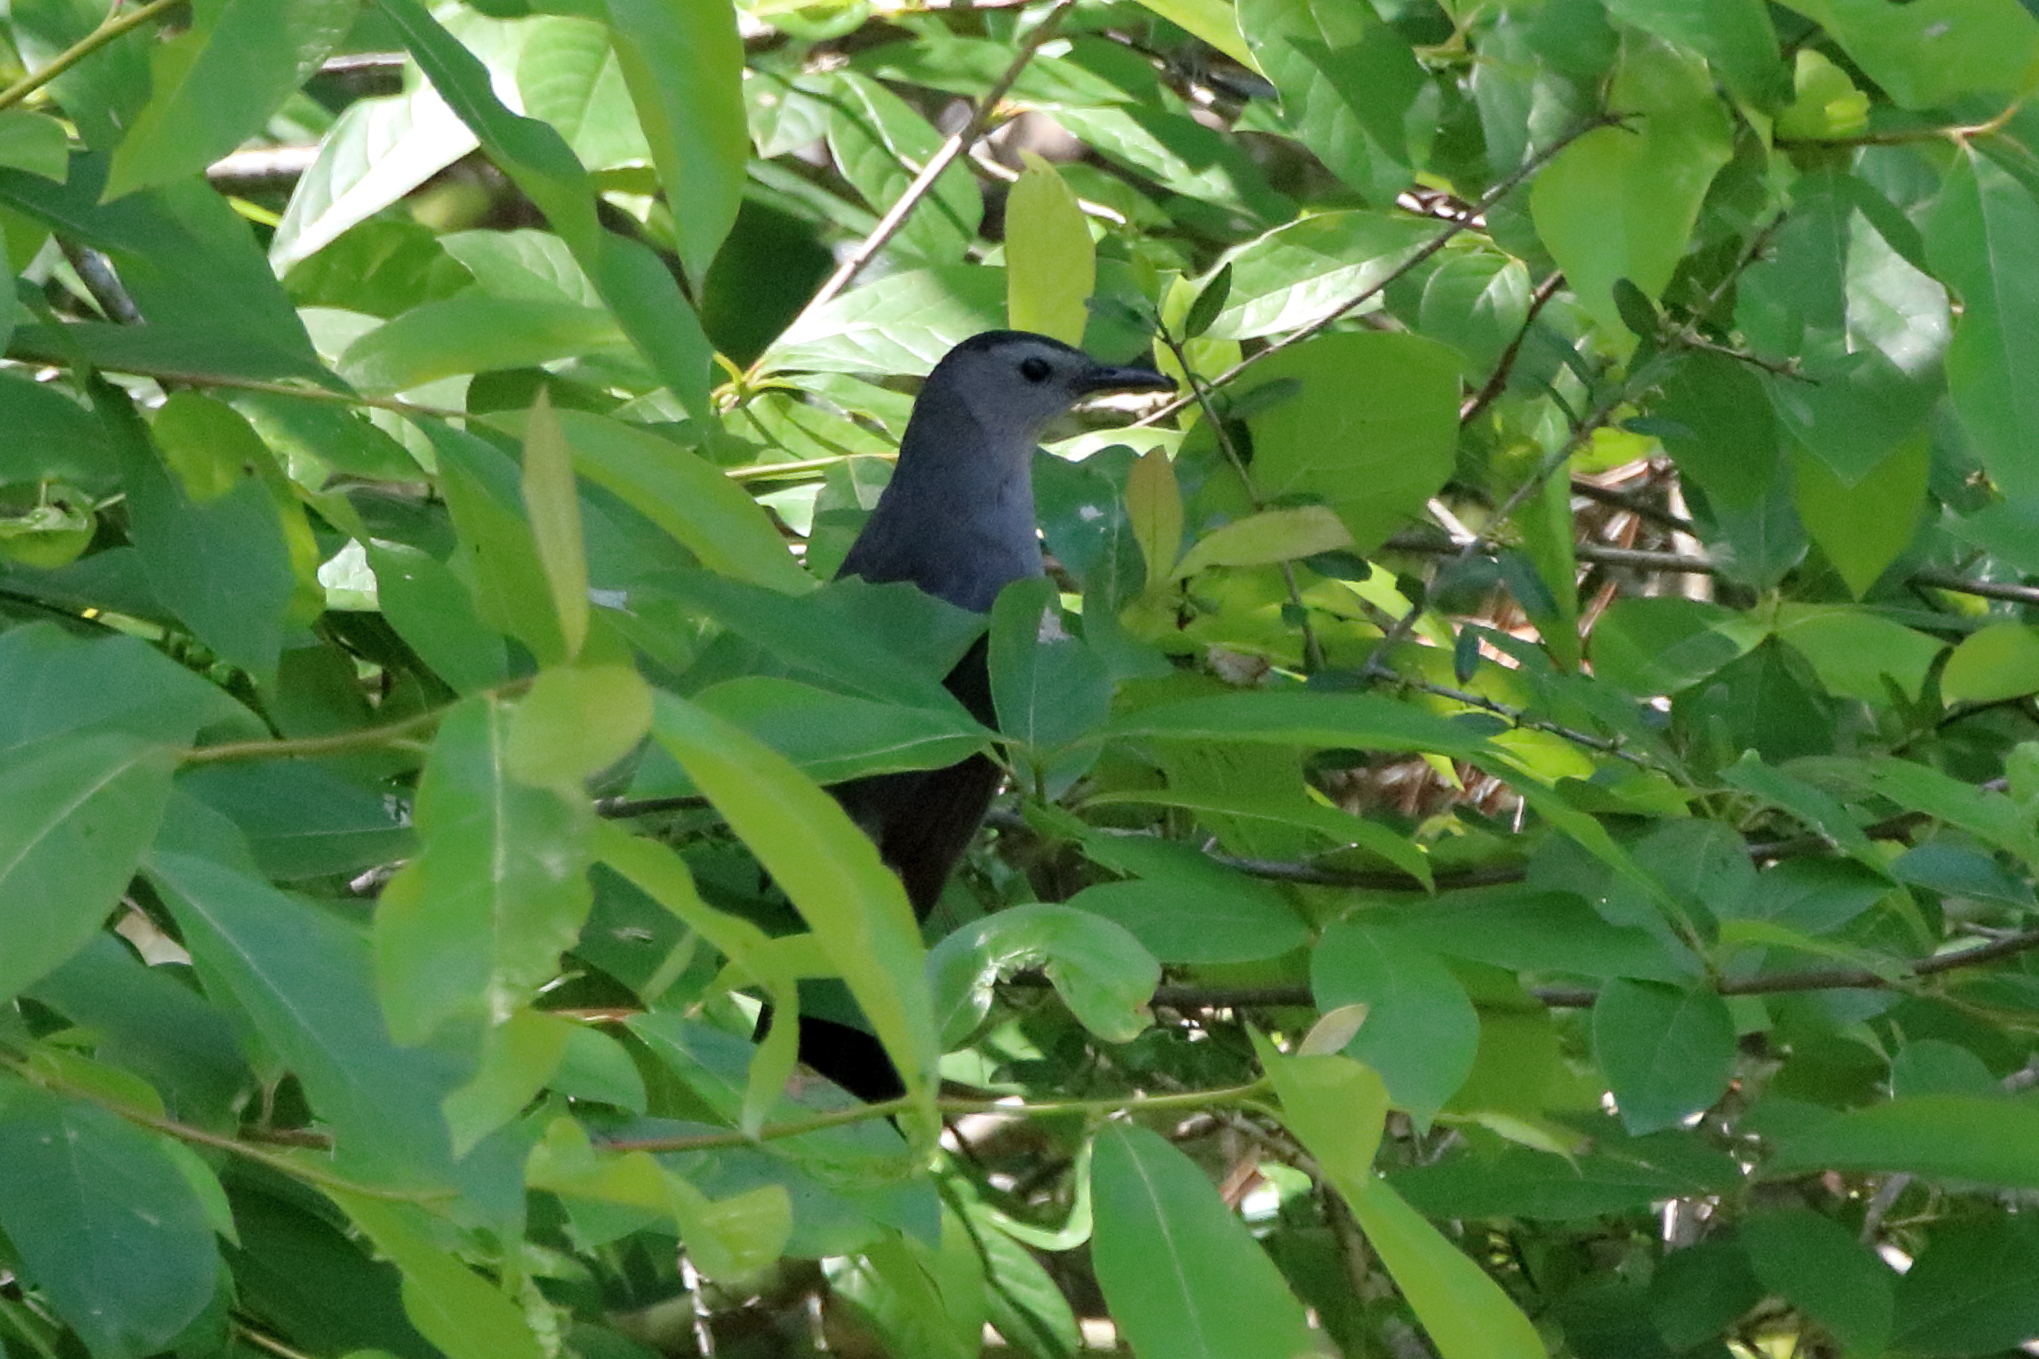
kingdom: Animalia
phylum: Chordata
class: Aves
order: Passeriformes
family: Mimidae
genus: Dumetella
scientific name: Dumetella carolinensis
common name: Gray catbird
